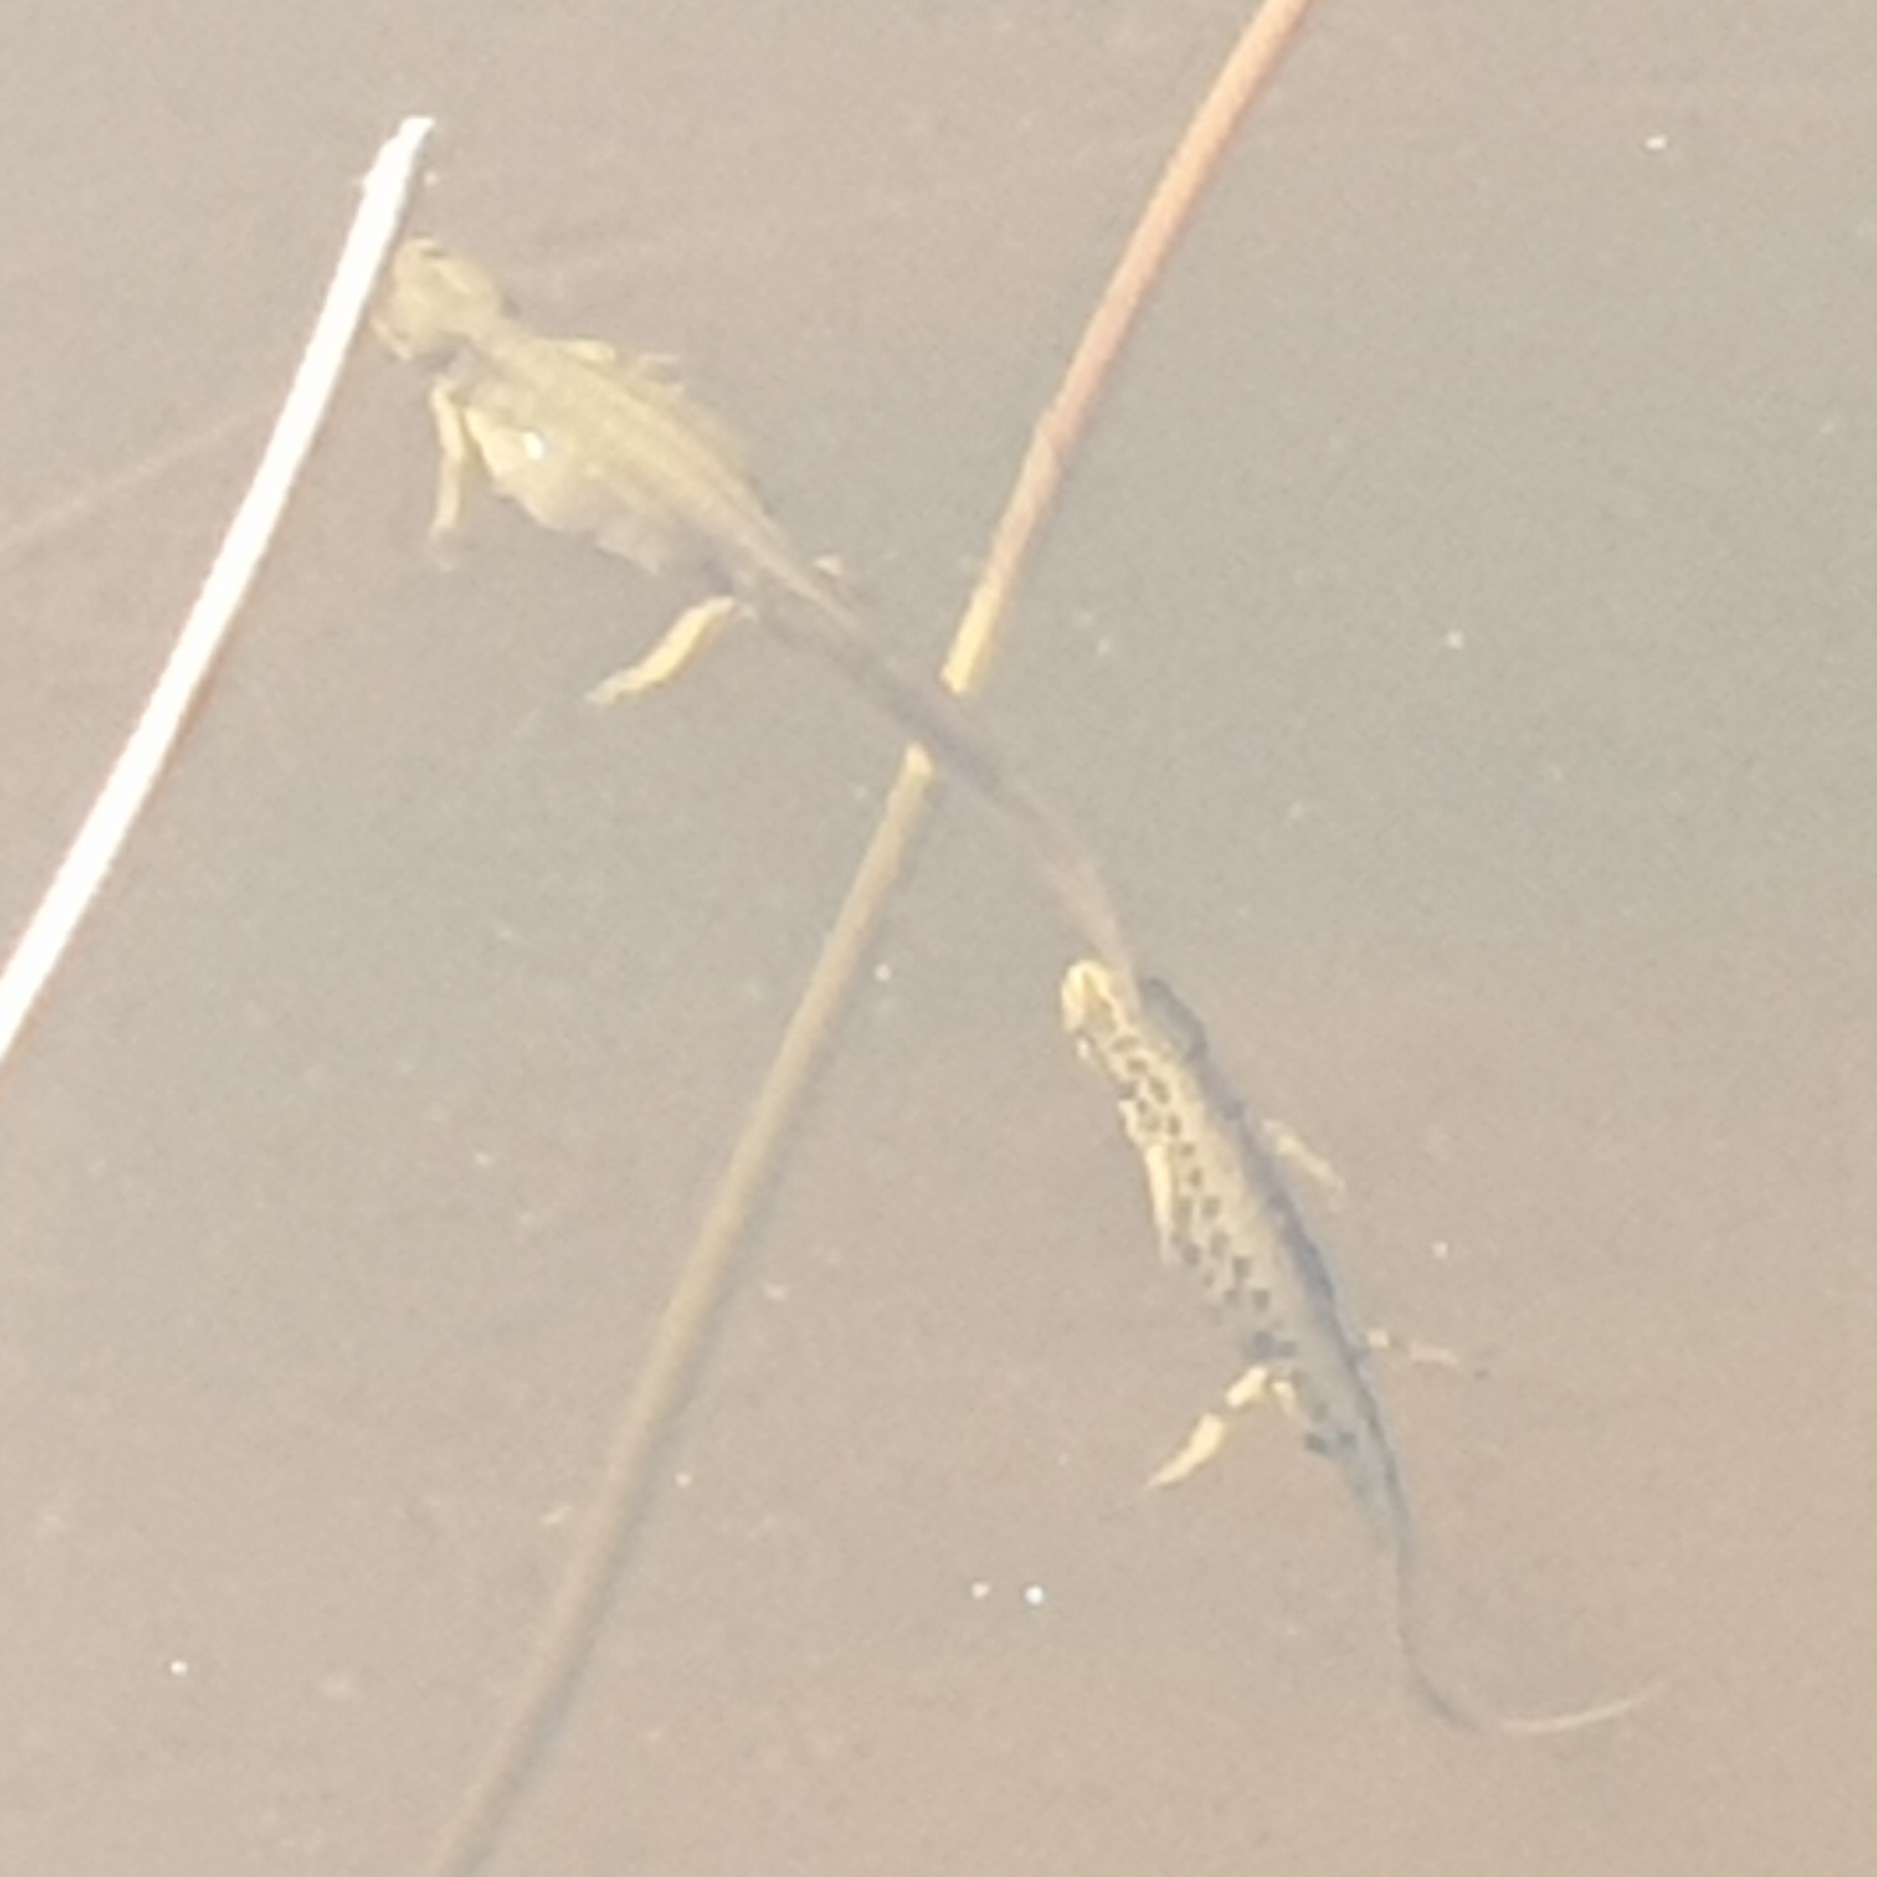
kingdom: Animalia
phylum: Chordata
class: Amphibia
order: Caudata
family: Salamandridae
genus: Lissotriton
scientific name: Lissotriton vulgaris
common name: Smooth newt
